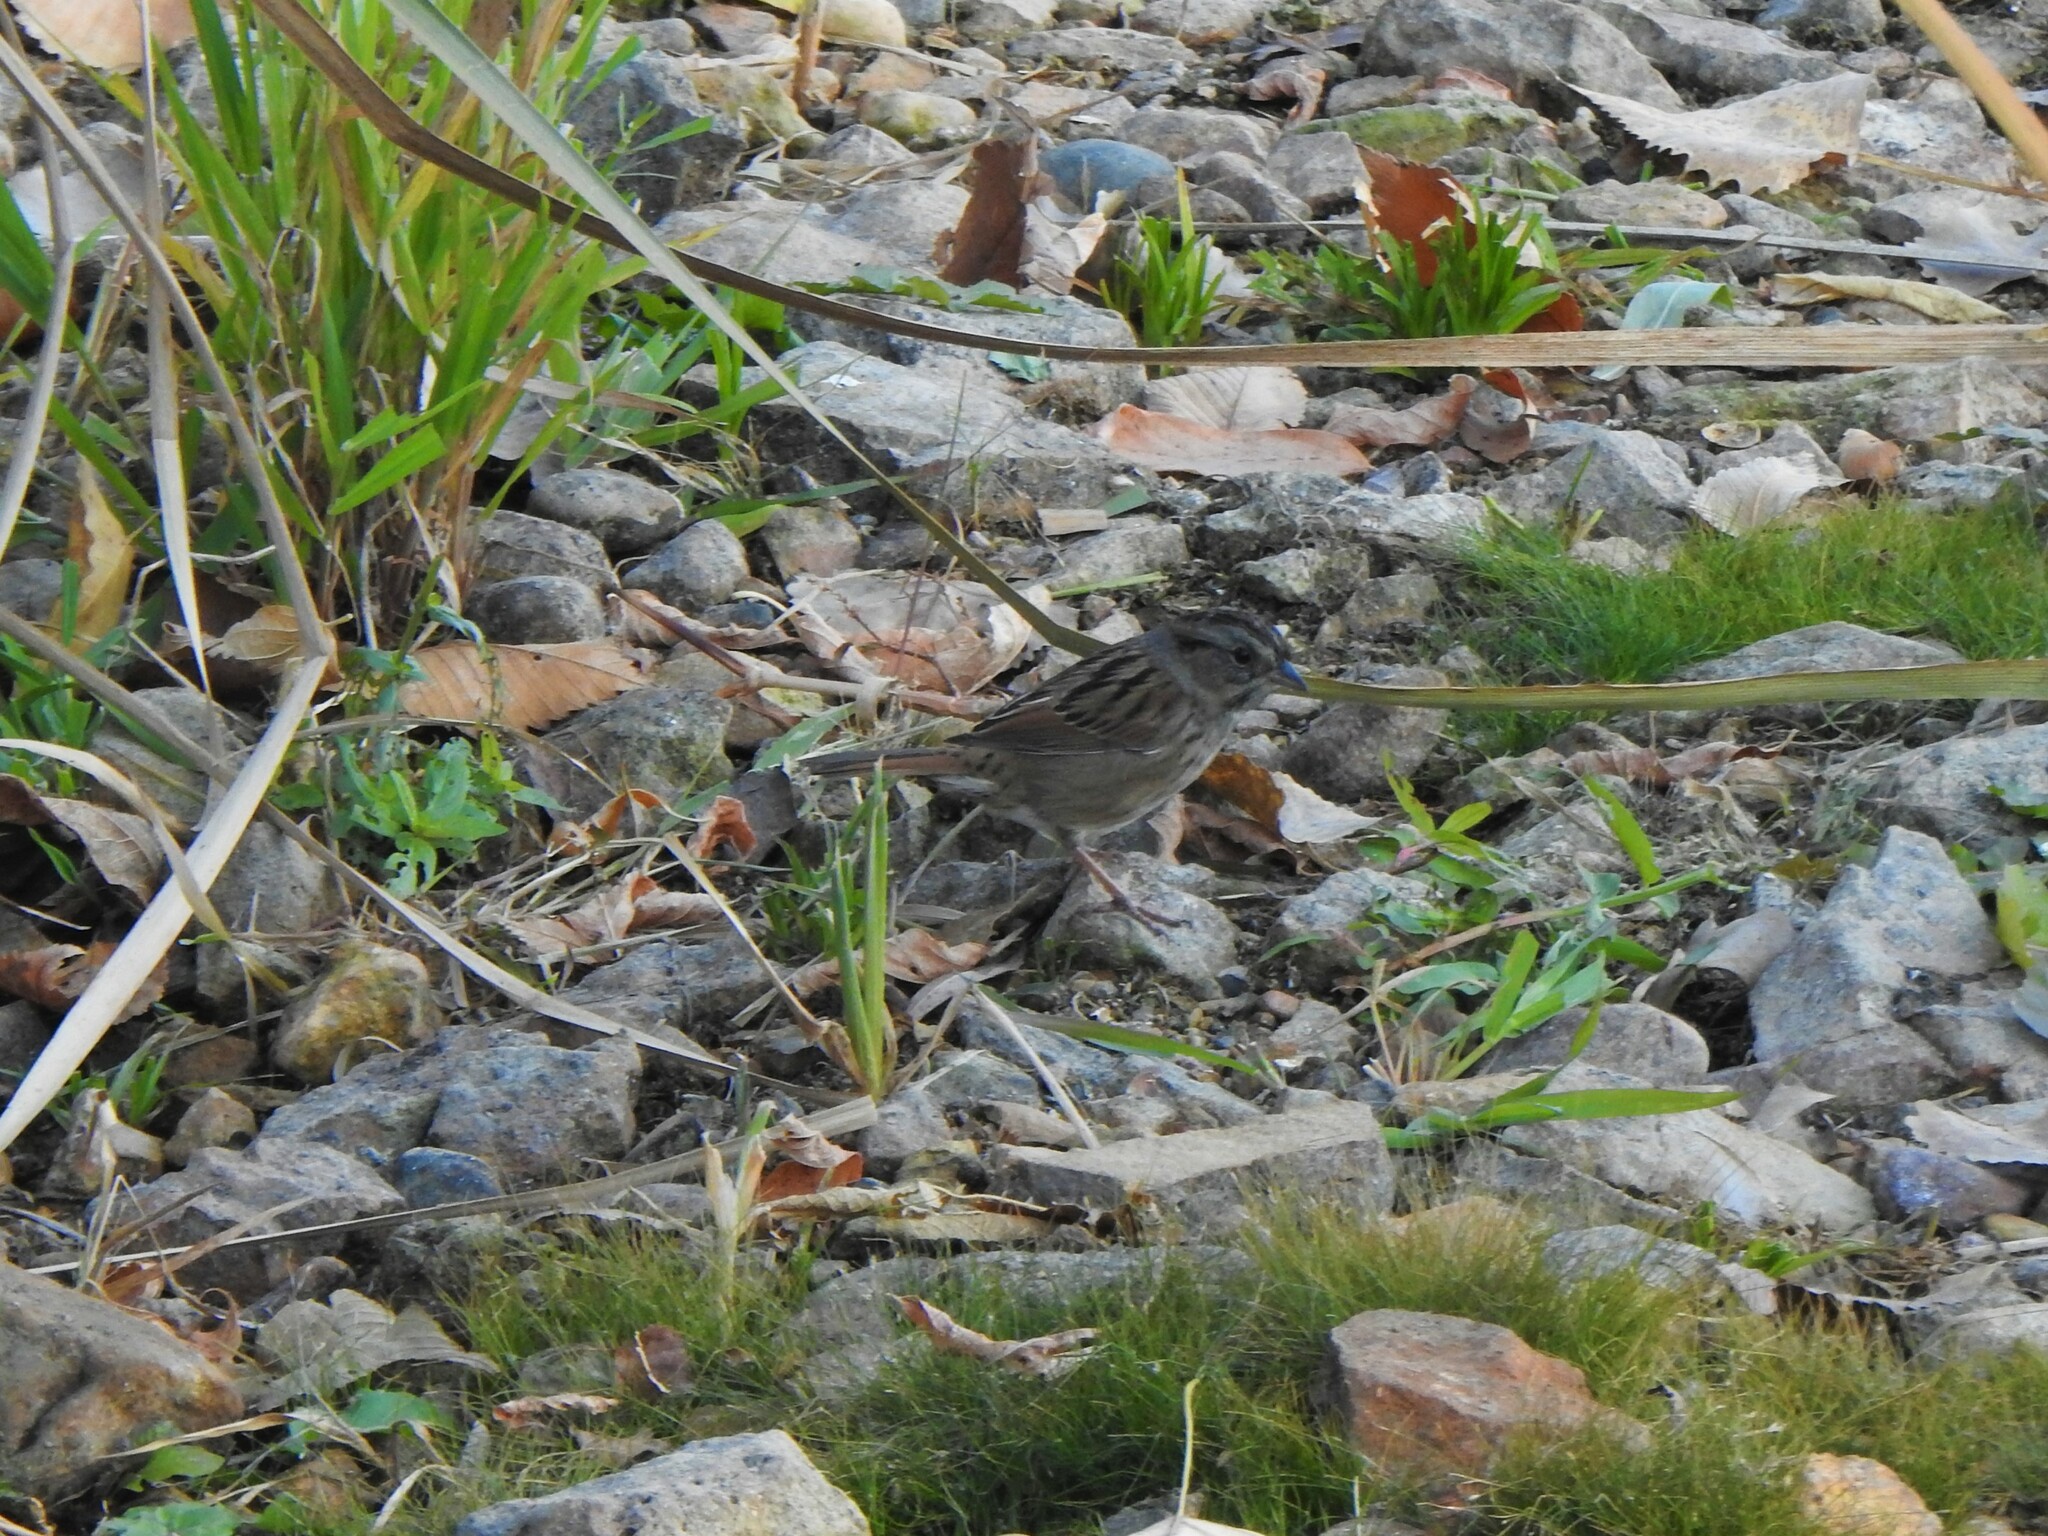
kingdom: Animalia
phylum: Chordata
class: Aves
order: Passeriformes
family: Passerellidae
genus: Melospiza
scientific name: Melospiza georgiana
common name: Swamp sparrow
